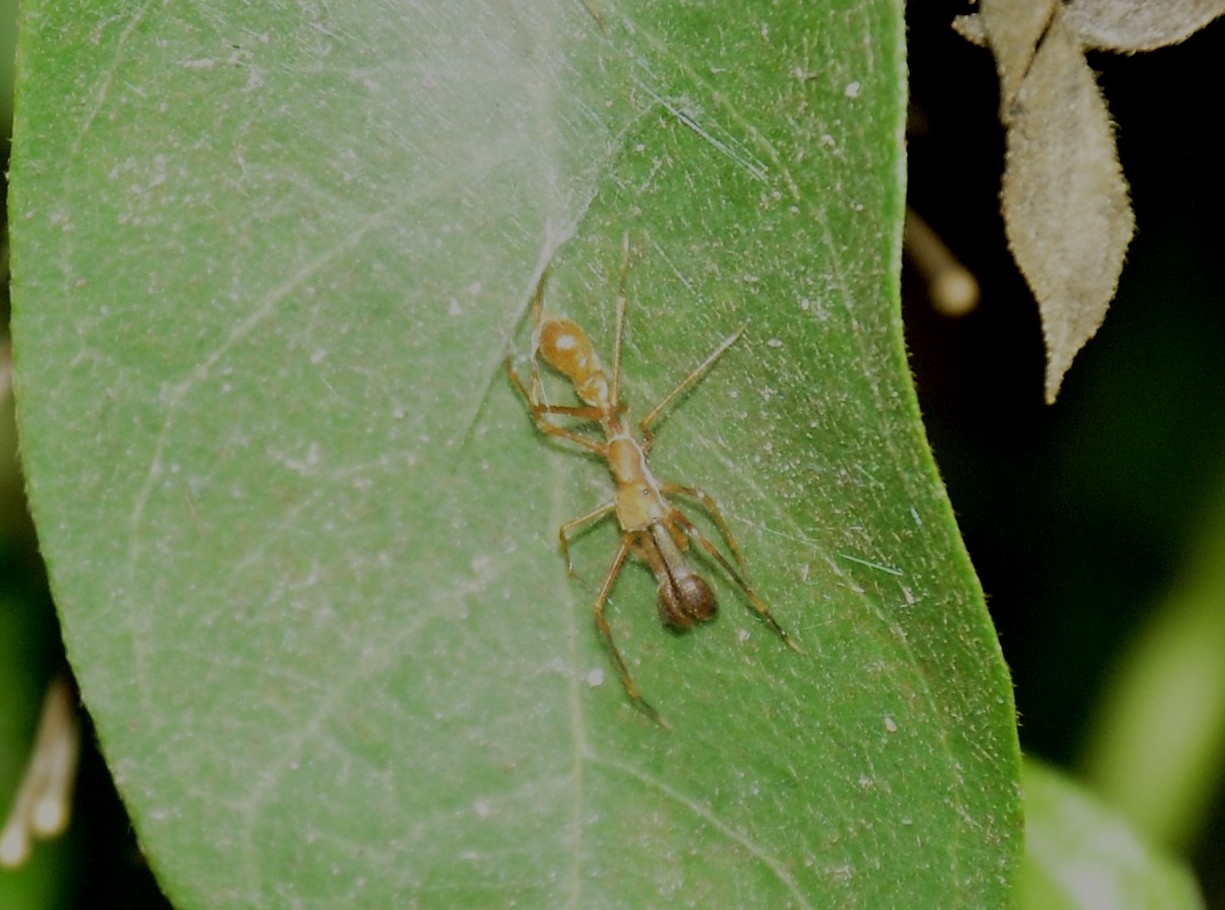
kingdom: Animalia
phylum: Arthropoda
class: Arachnida
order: Araneae
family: Salticidae
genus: Myrmaplata
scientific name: Myrmaplata plataleoides
